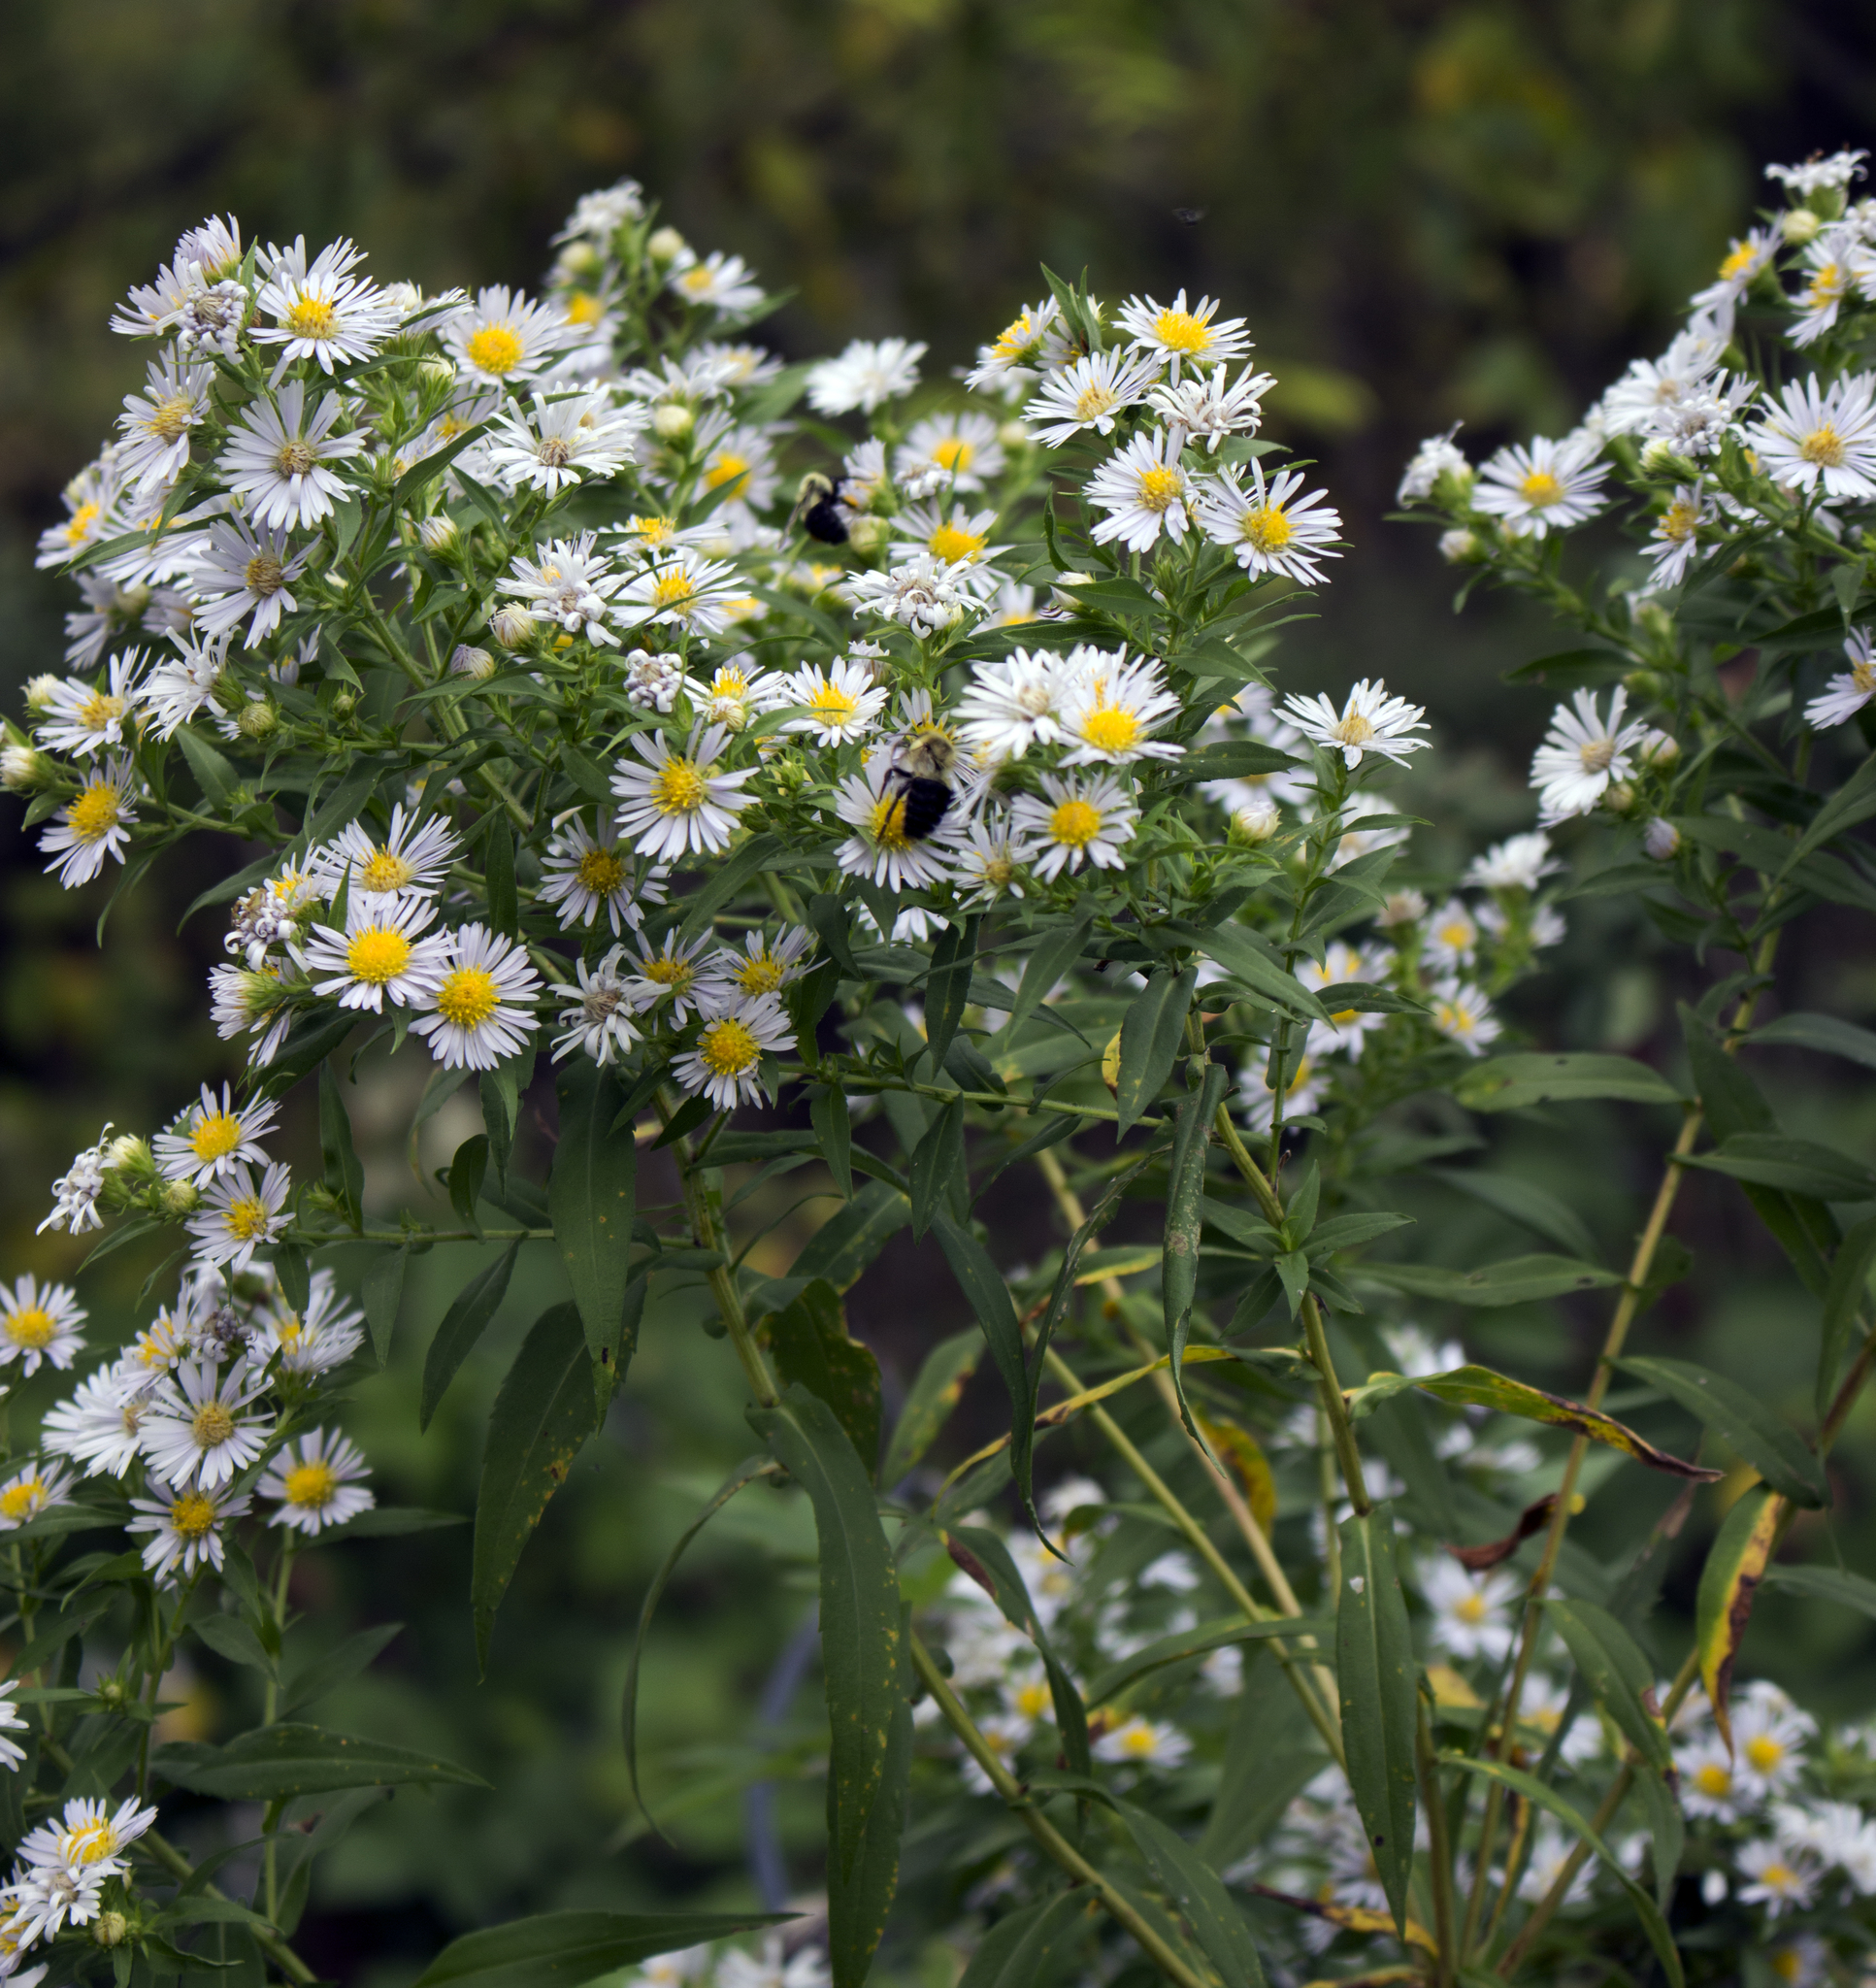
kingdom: Plantae
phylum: Tracheophyta
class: Magnoliopsida
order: Asterales
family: Asteraceae
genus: Symphyotrichum
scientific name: Symphyotrichum lanceolatum
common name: Panicled aster
